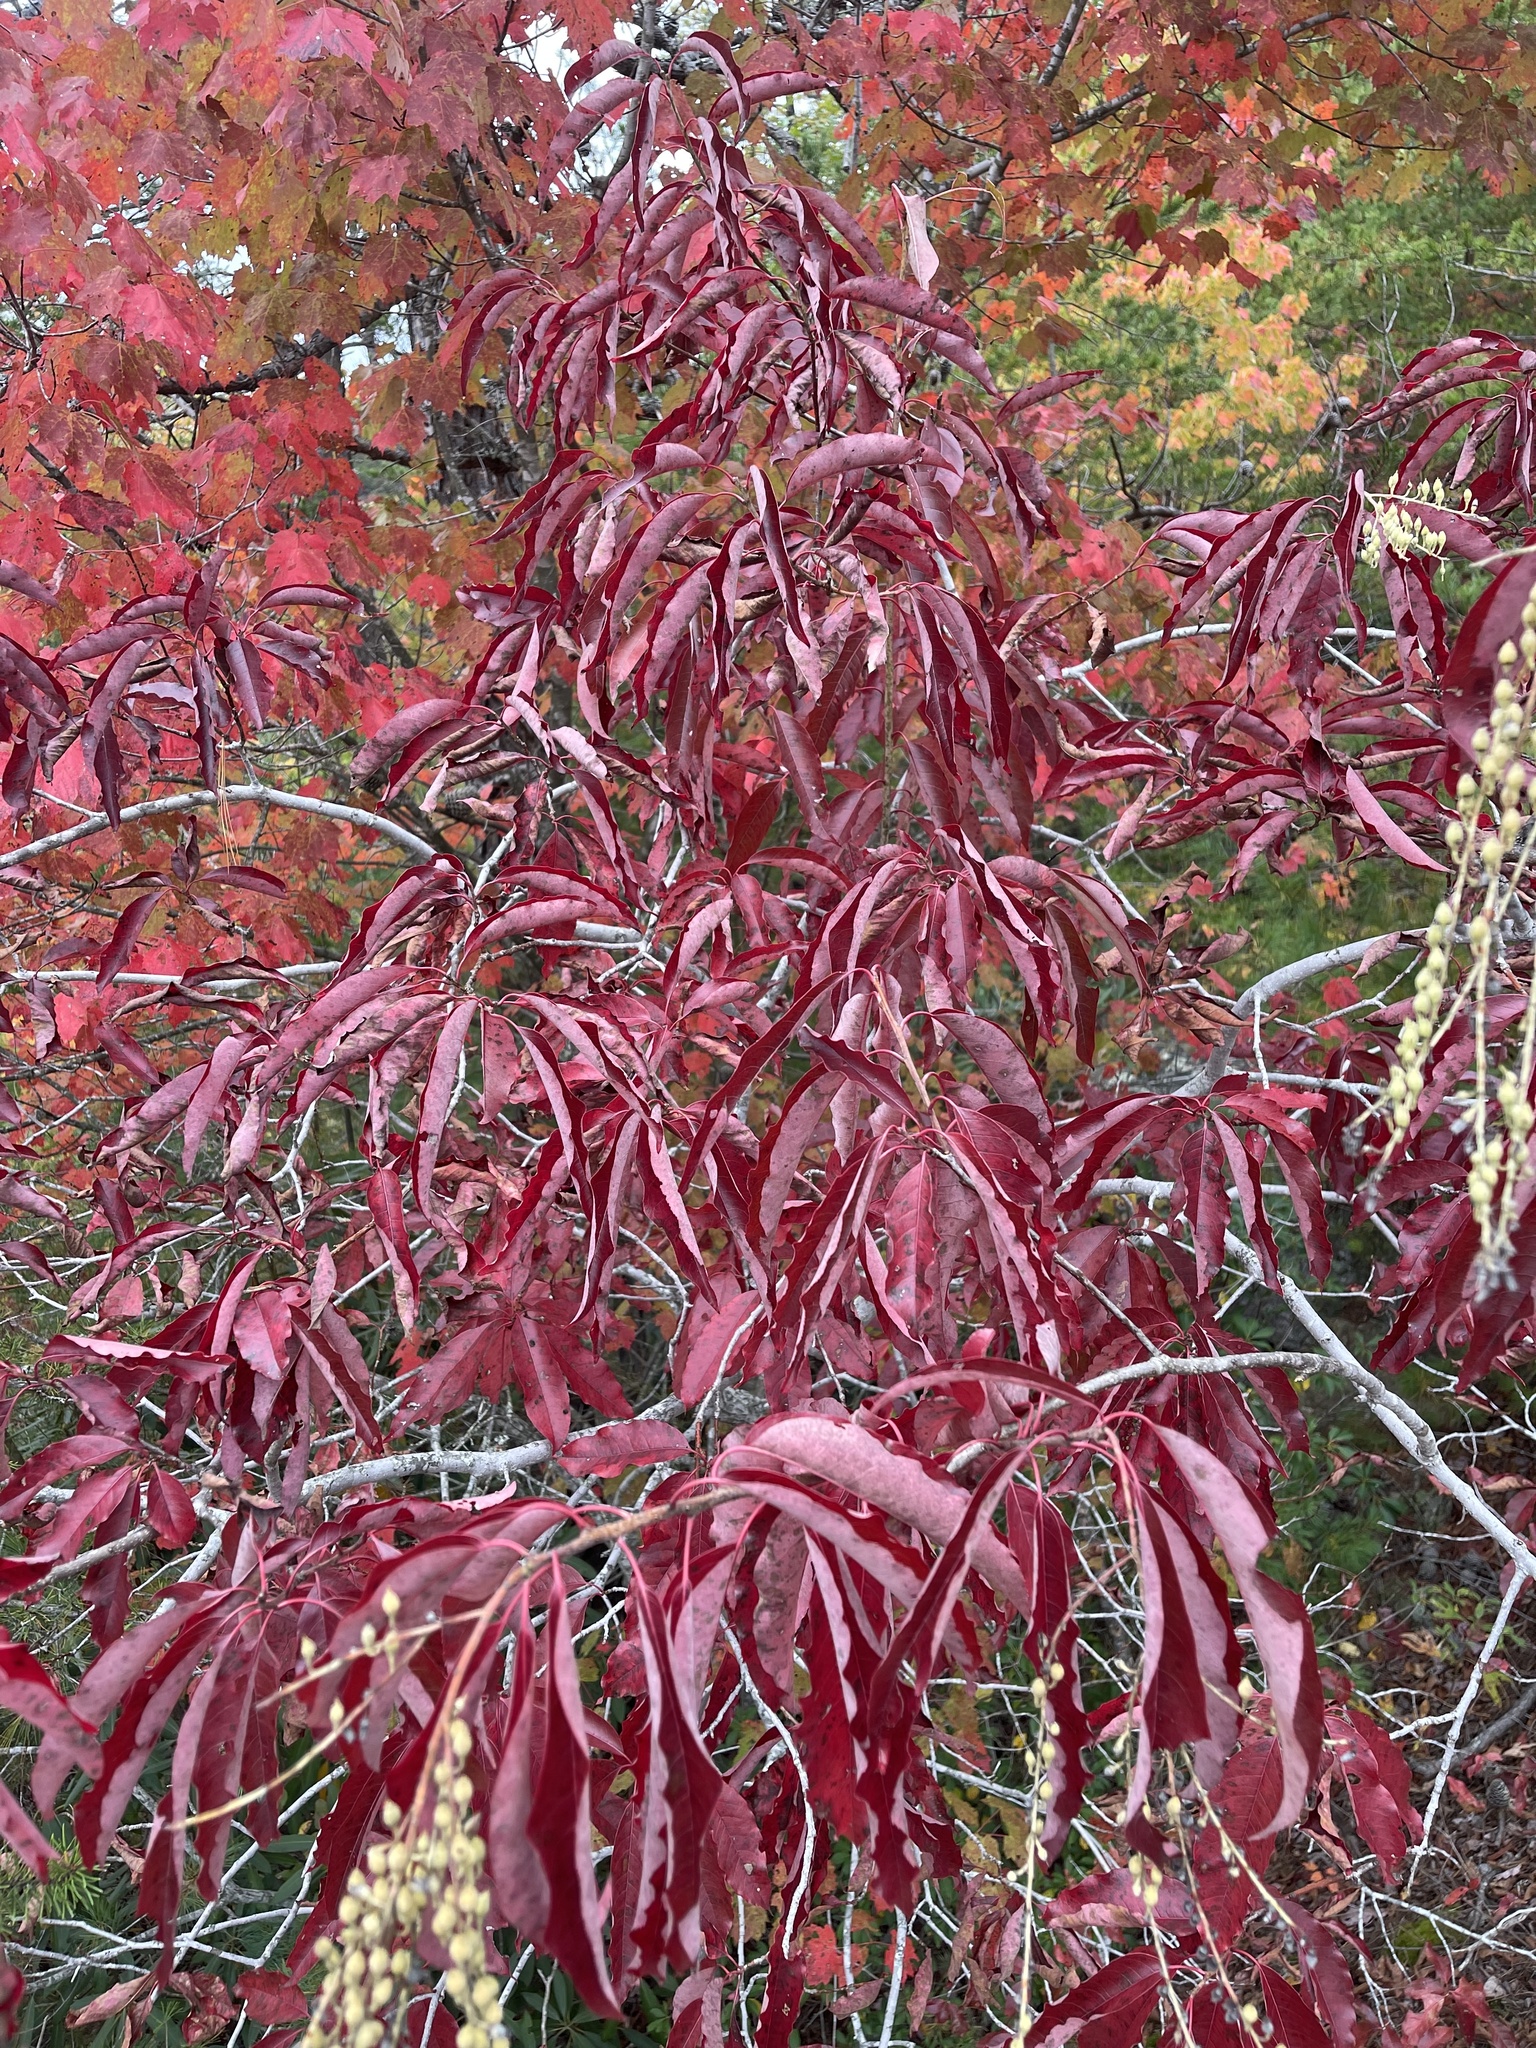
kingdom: Plantae
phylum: Tracheophyta
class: Magnoliopsida
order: Ericales
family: Ericaceae
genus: Oxydendrum
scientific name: Oxydendrum arboreum
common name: Sourwood
